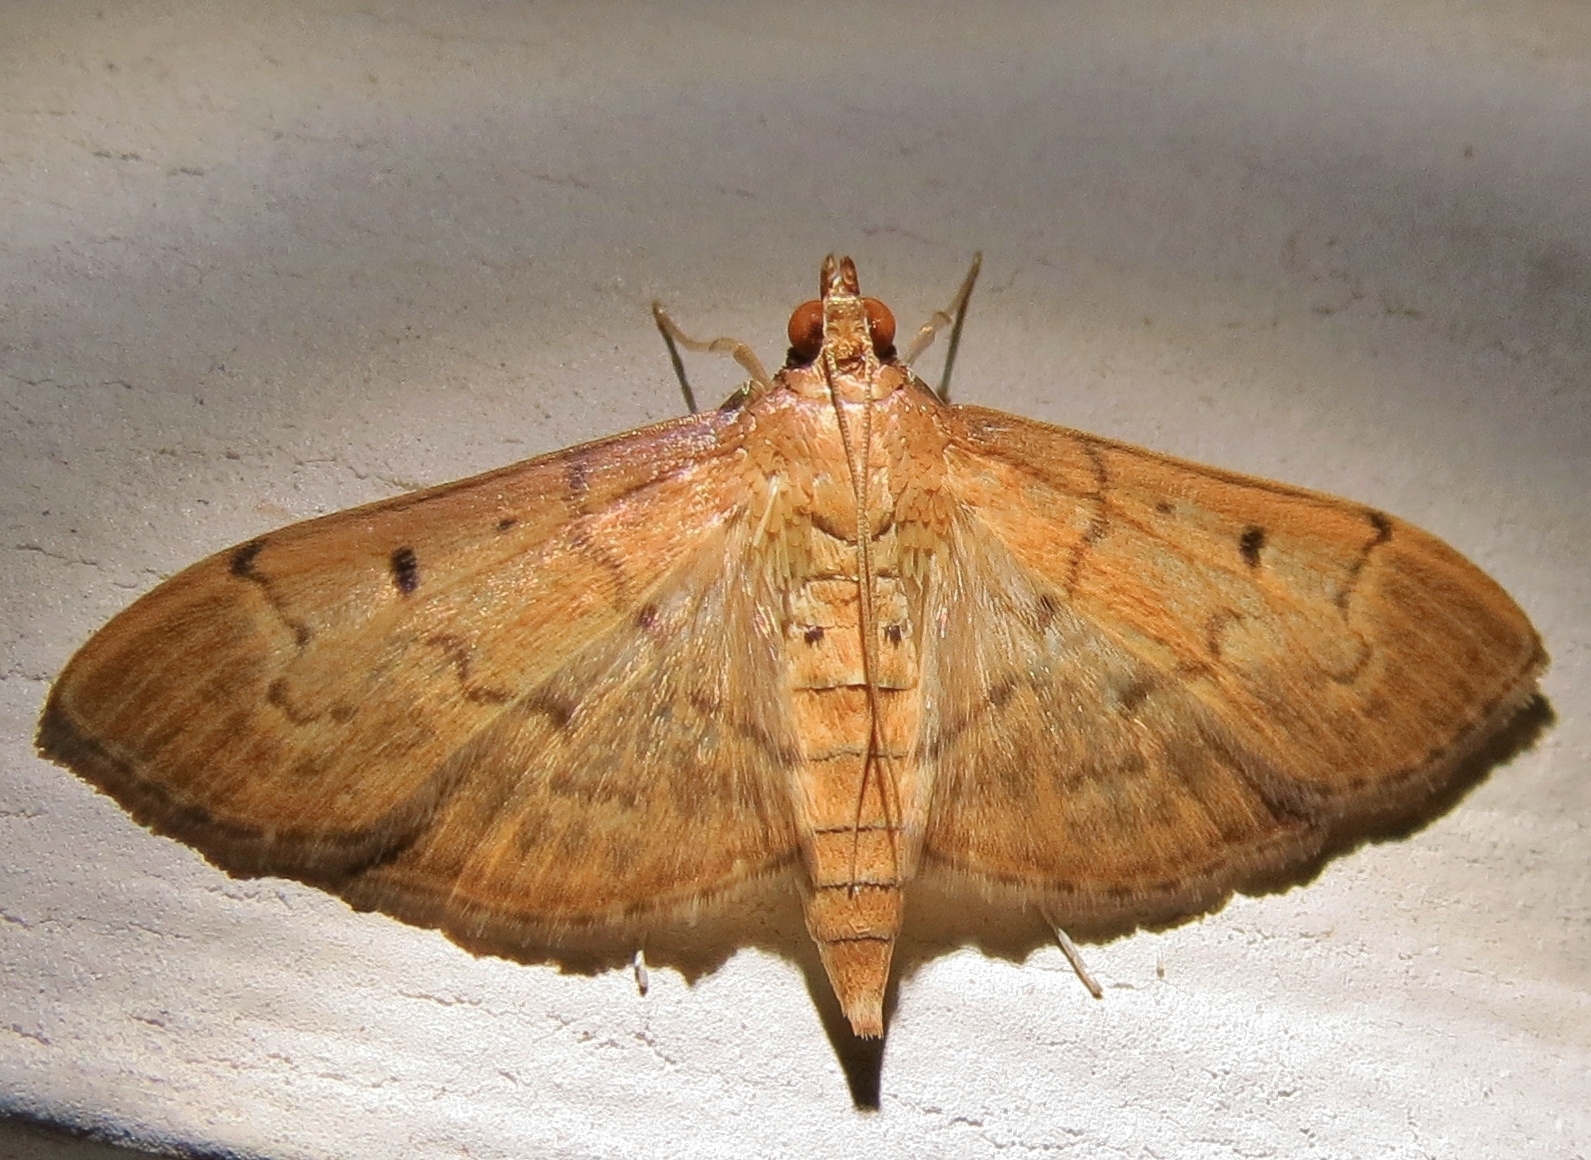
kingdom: Animalia
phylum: Arthropoda
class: Insecta
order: Lepidoptera
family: Crambidae
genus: Herpetogramma
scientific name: Herpetogramma bipunctalis
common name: Southern beet webworm
